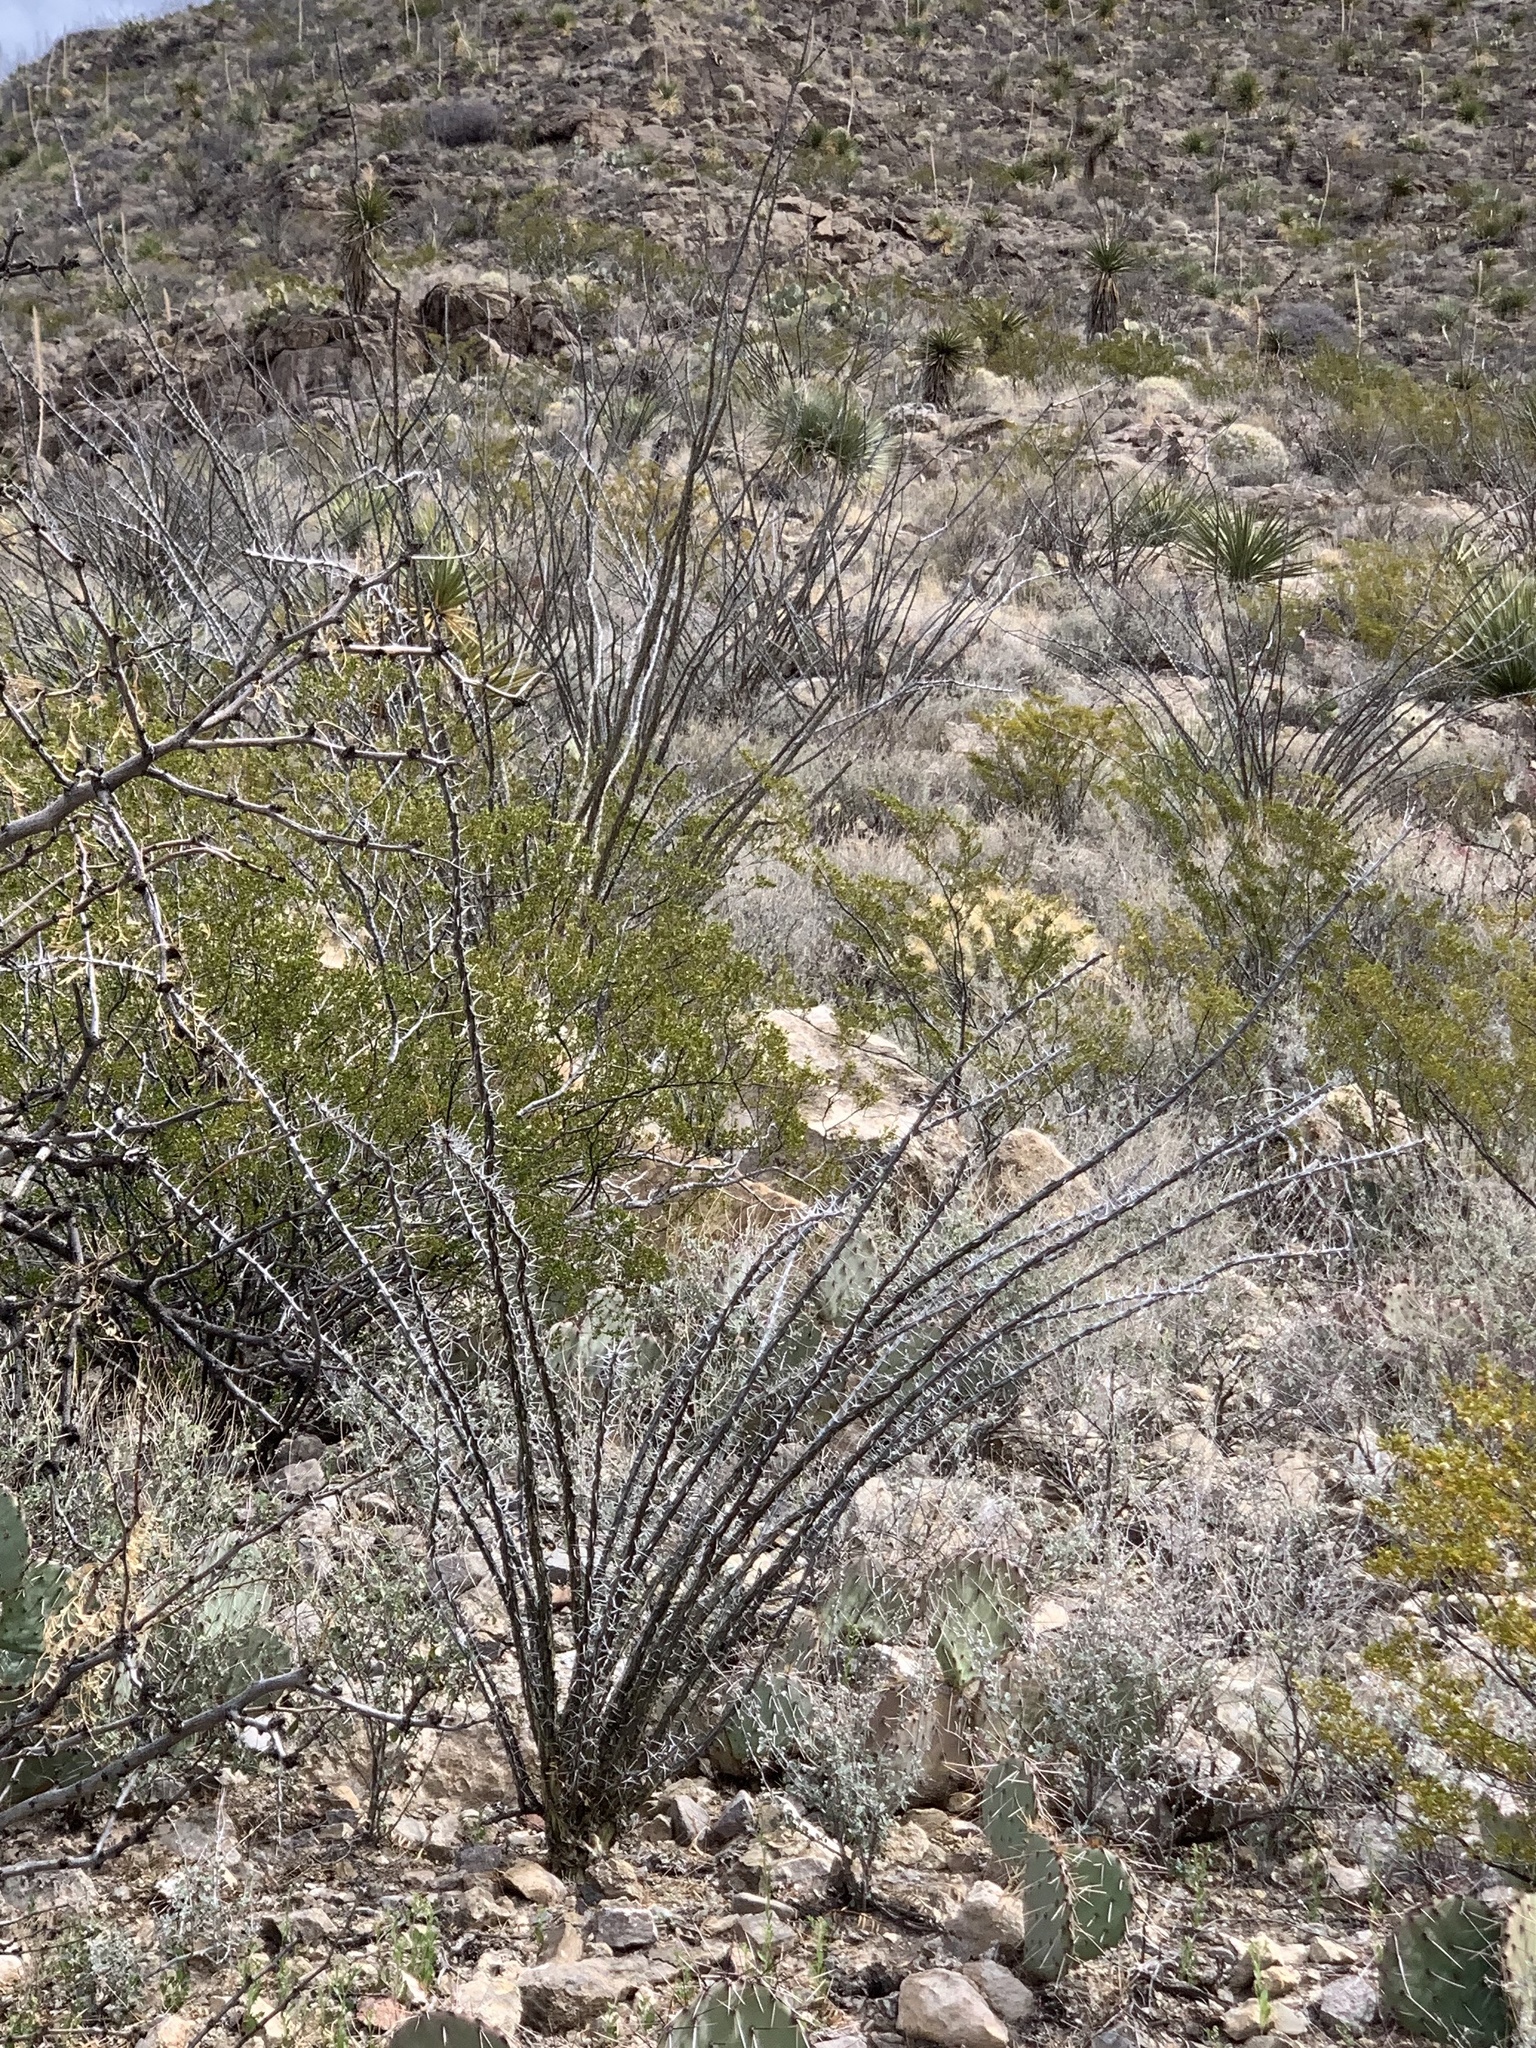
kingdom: Plantae
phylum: Tracheophyta
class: Magnoliopsida
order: Ericales
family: Fouquieriaceae
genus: Fouquieria
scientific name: Fouquieria splendens
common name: Vine-cactus
